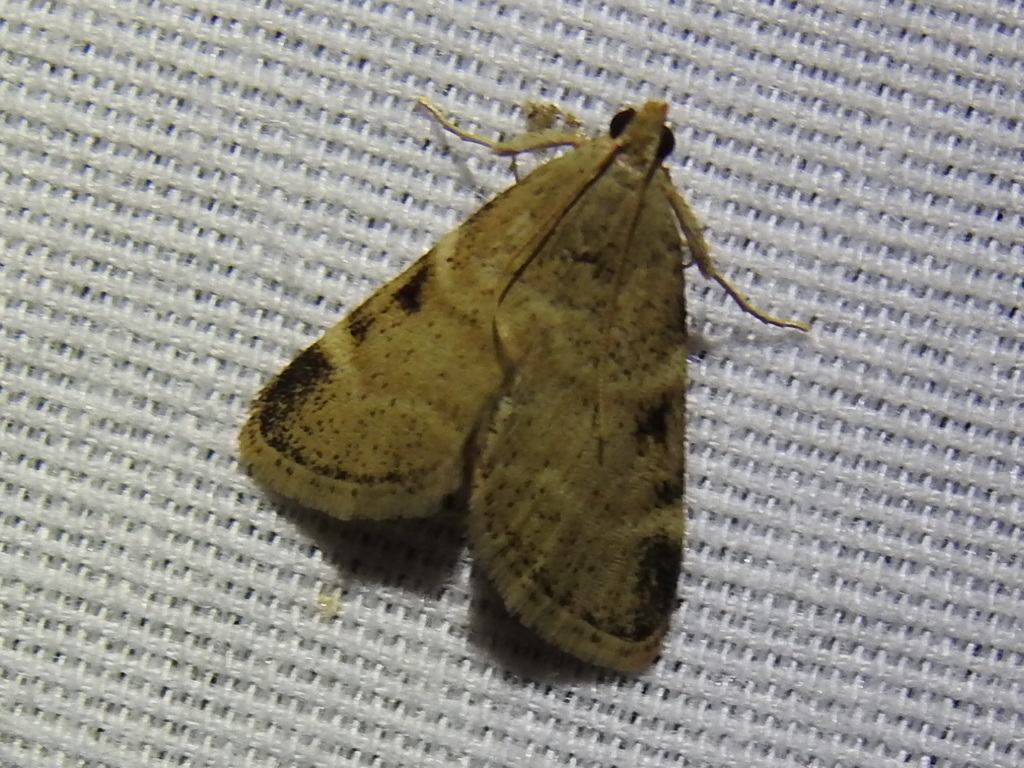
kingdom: Animalia
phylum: Arthropoda
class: Insecta
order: Lepidoptera
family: Pyralidae
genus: Hypsopygia
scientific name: Hypsopygia
